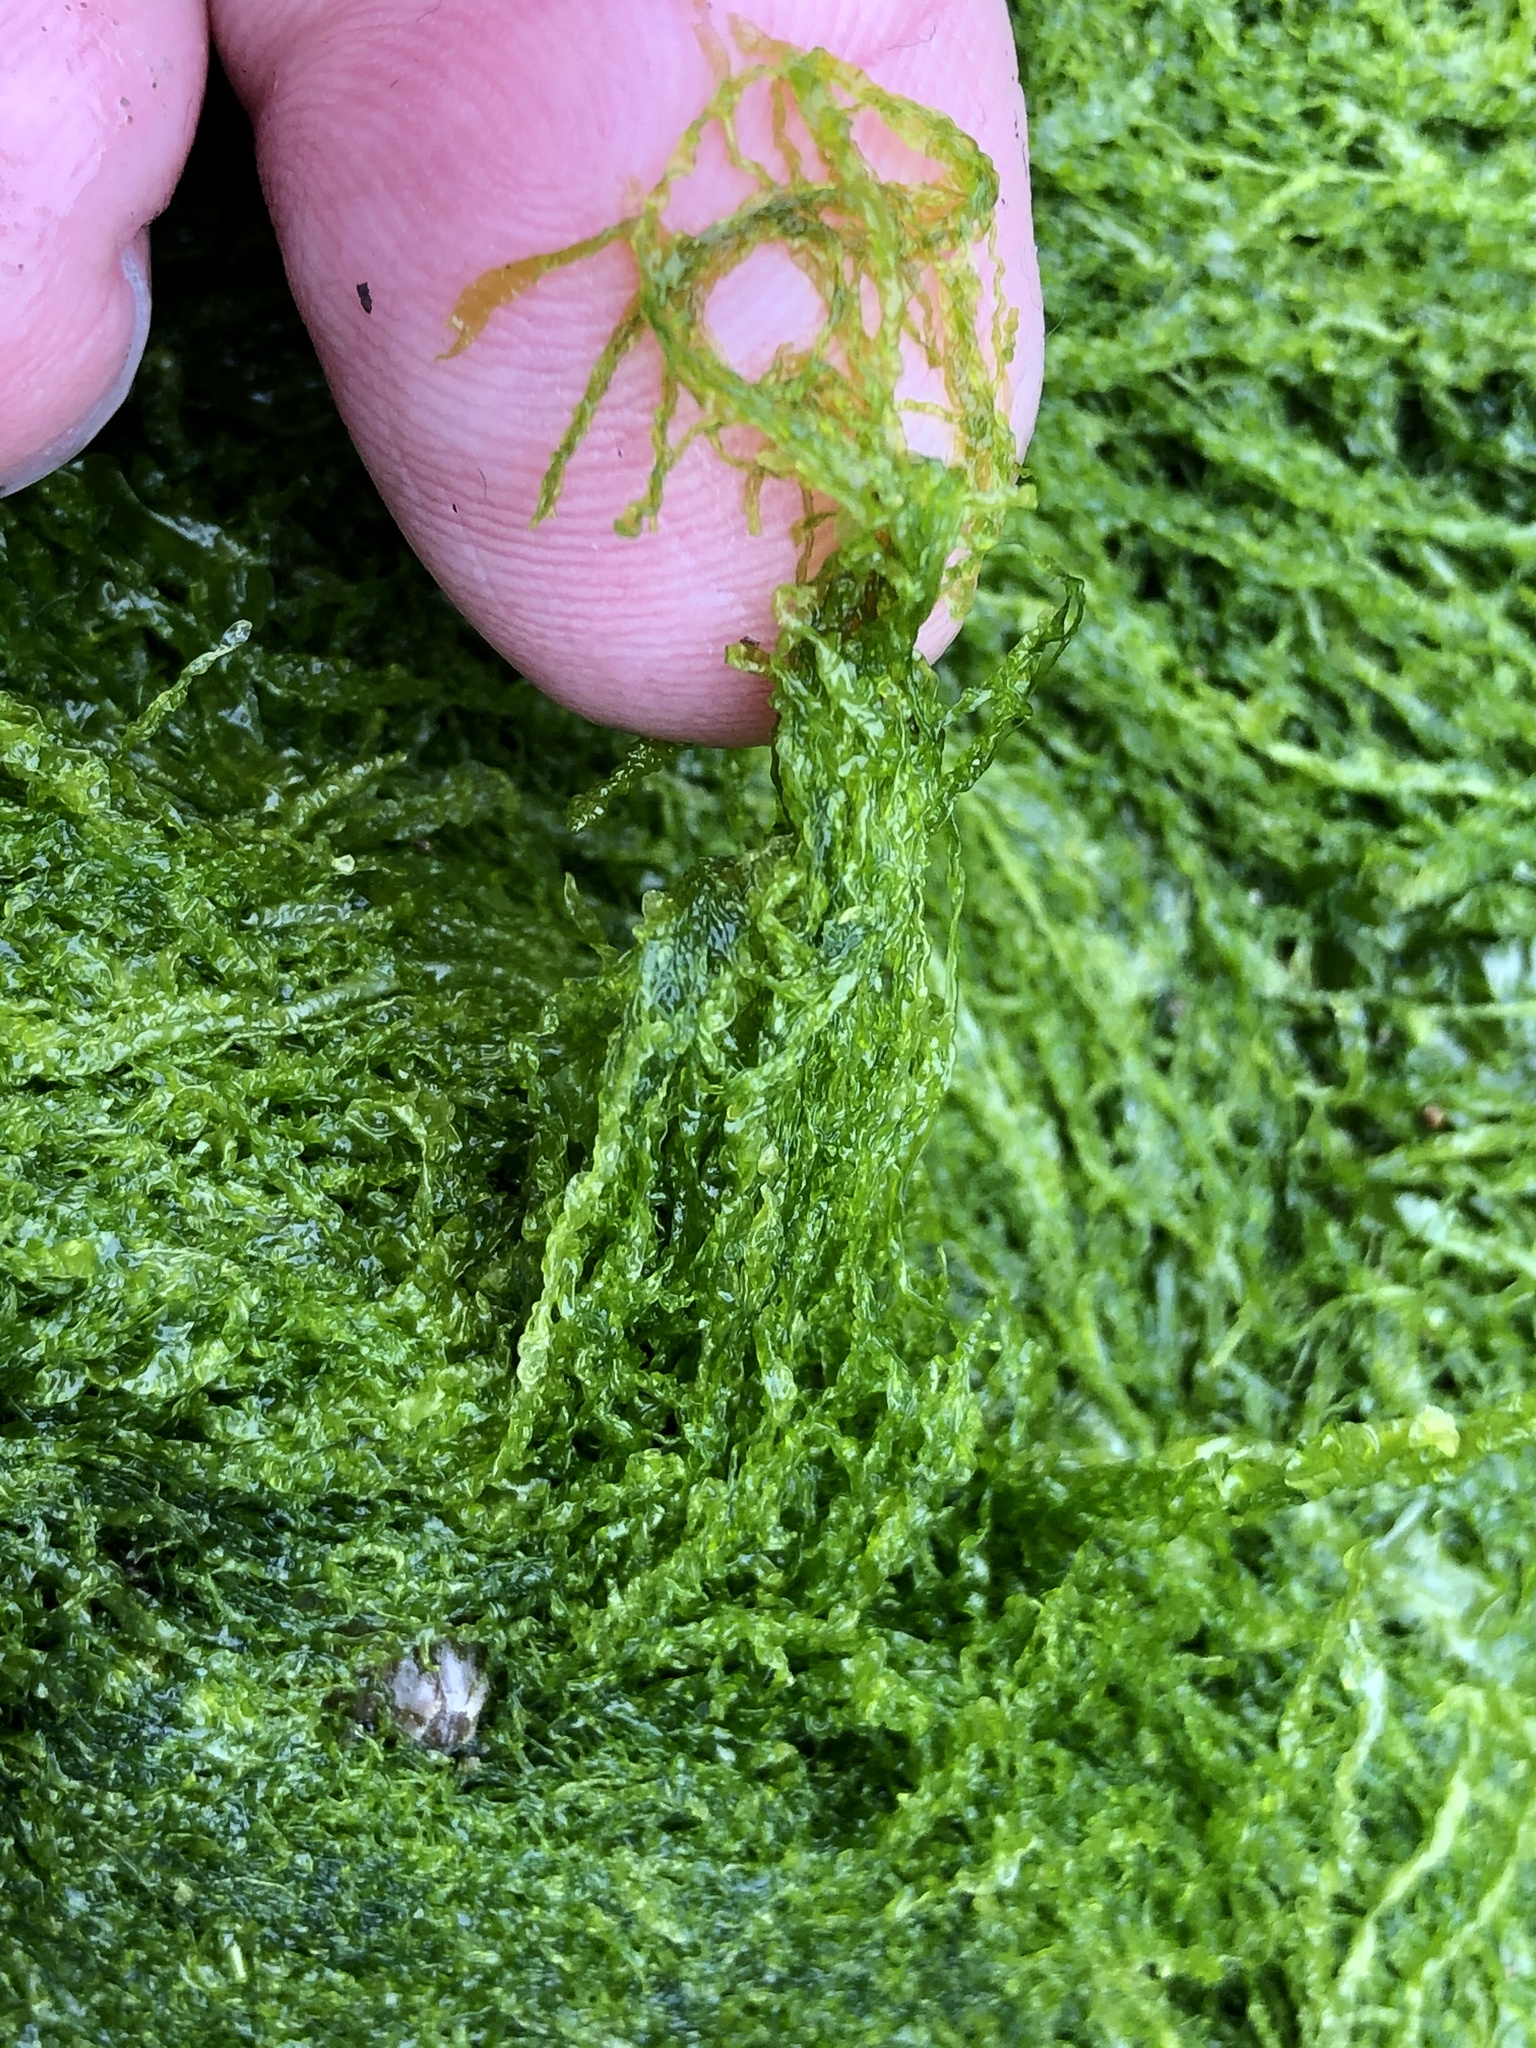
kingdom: Plantae
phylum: Chlorophyta
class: Ulvophyceae
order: Ulvales
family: Ulvaceae
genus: Ulva
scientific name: Ulva intestinalis
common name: Gut weed
